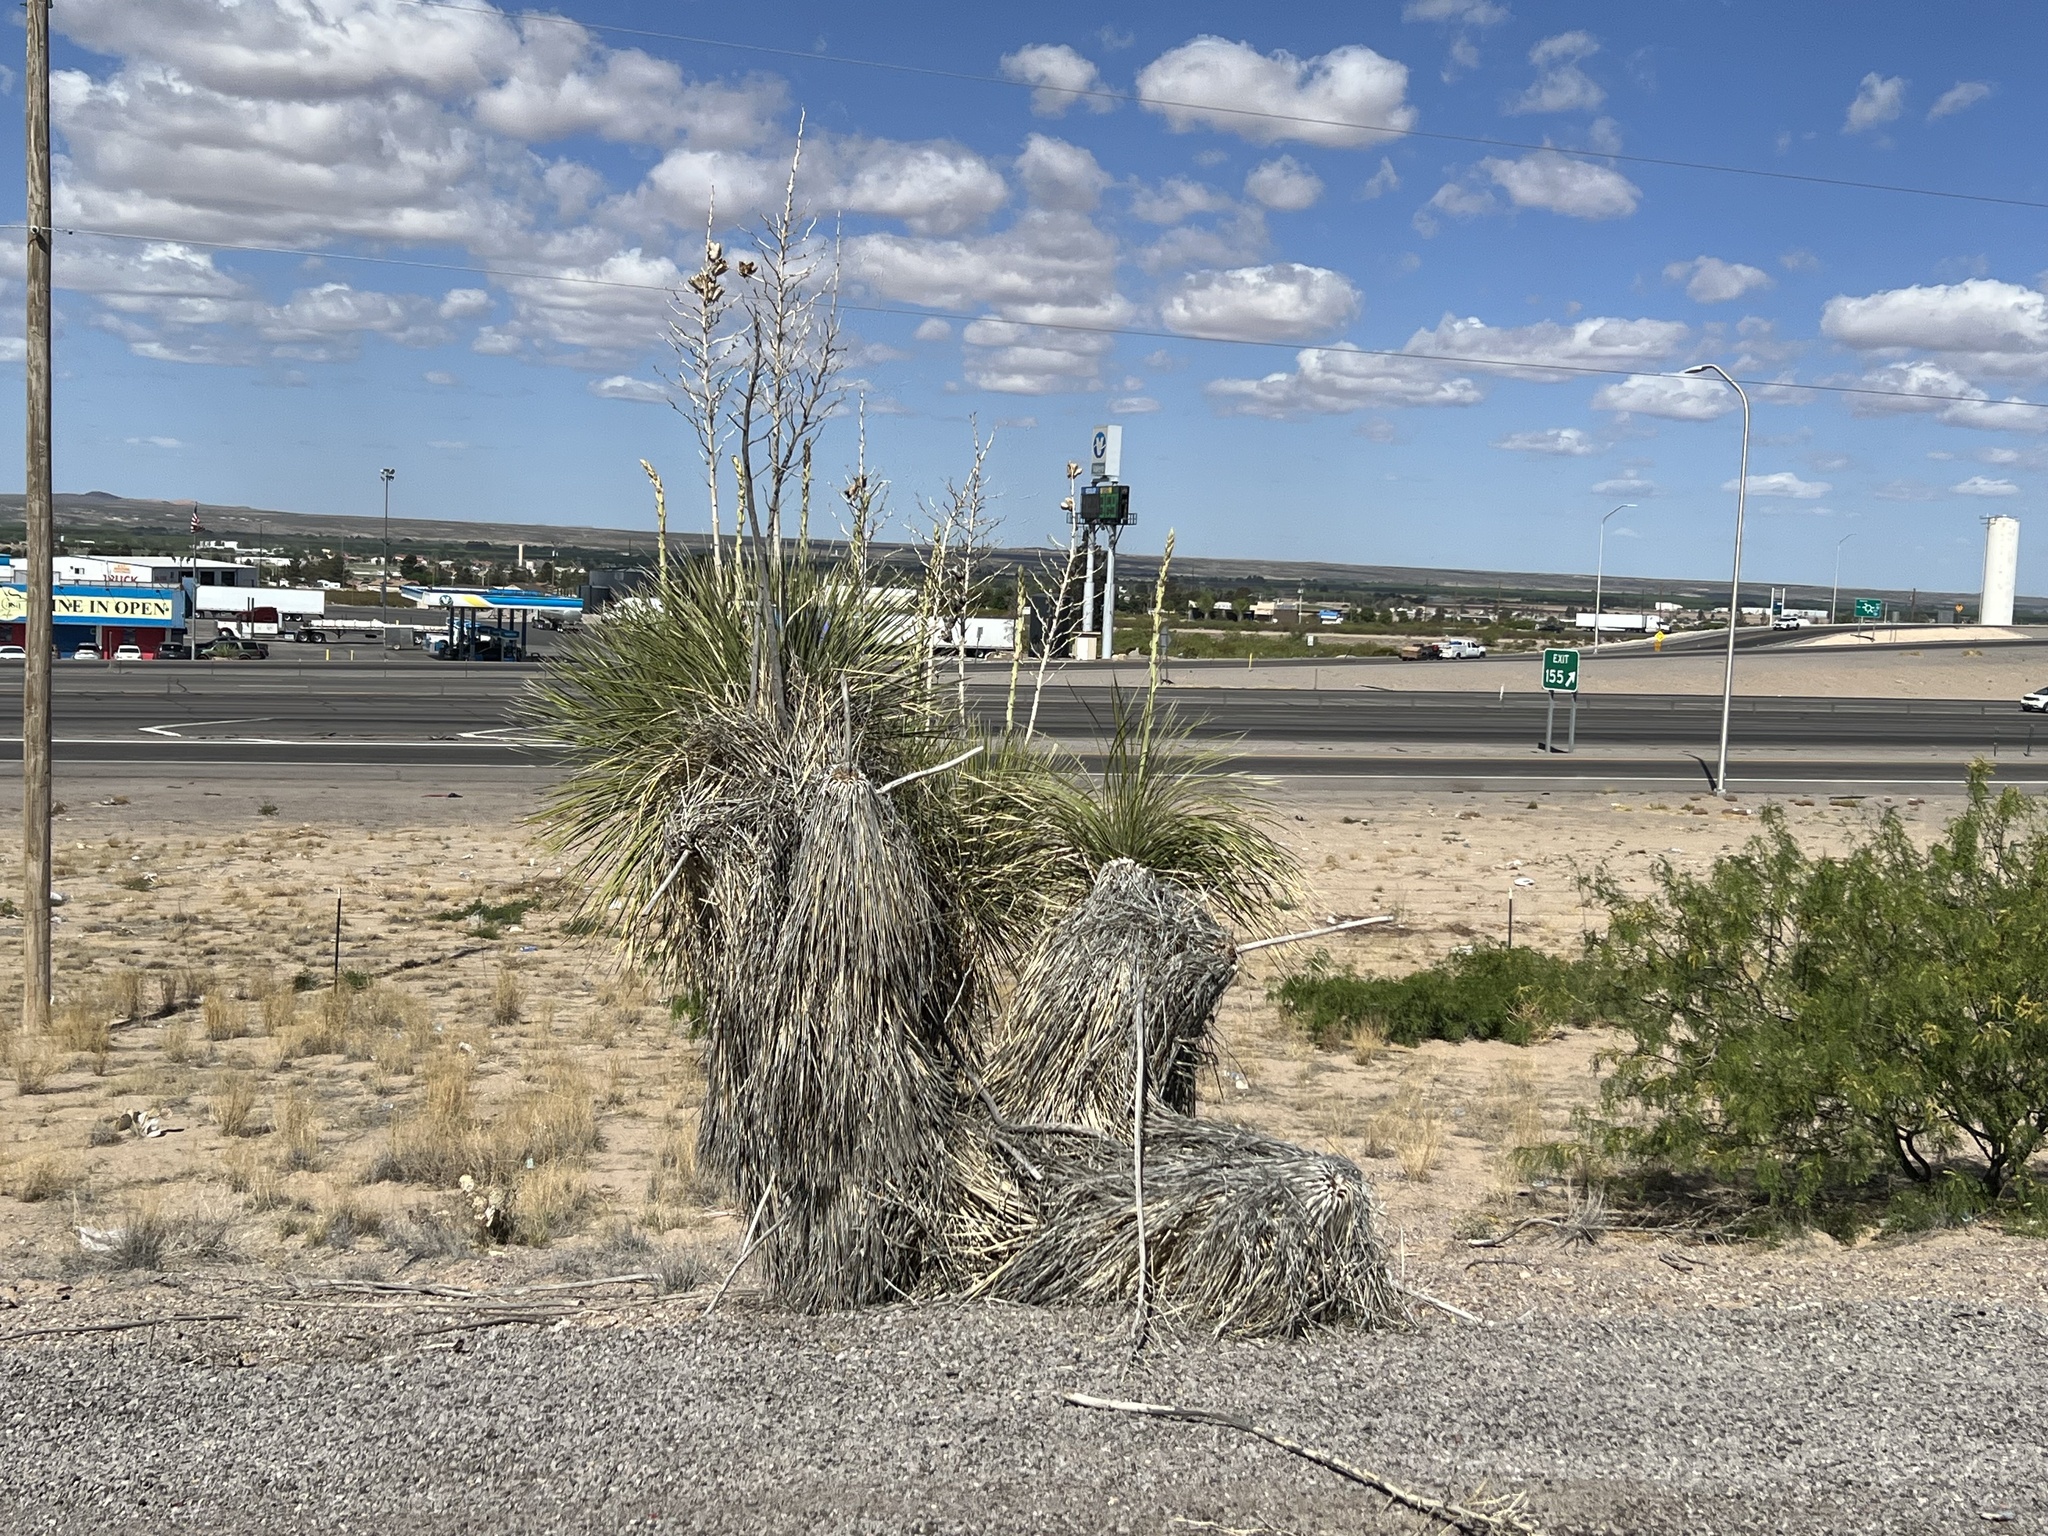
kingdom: Plantae
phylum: Tracheophyta
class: Liliopsida
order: Asparagales
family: Asparagaceae
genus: Yucca
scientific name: Yucca elata
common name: Palmella
